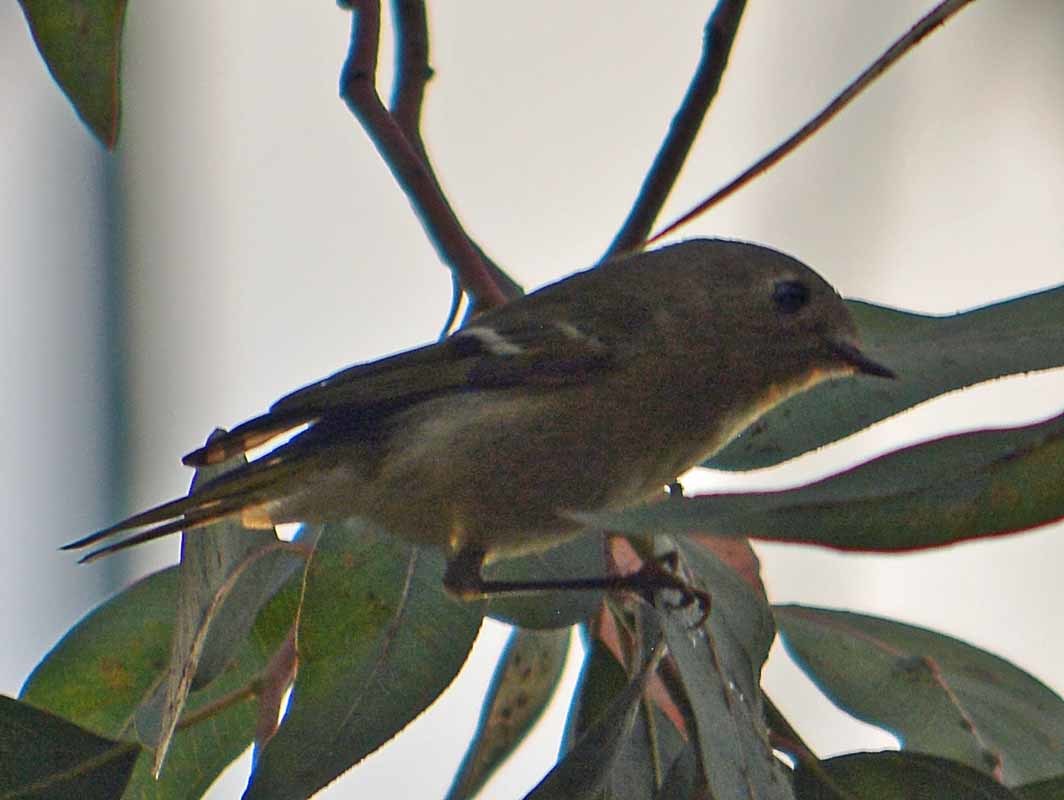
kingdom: Animalia
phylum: Chordata
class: Aves
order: Passeriformes
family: Regulidae
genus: Regulus
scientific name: Regulus calendula
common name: Ruby-crowned kinglet
